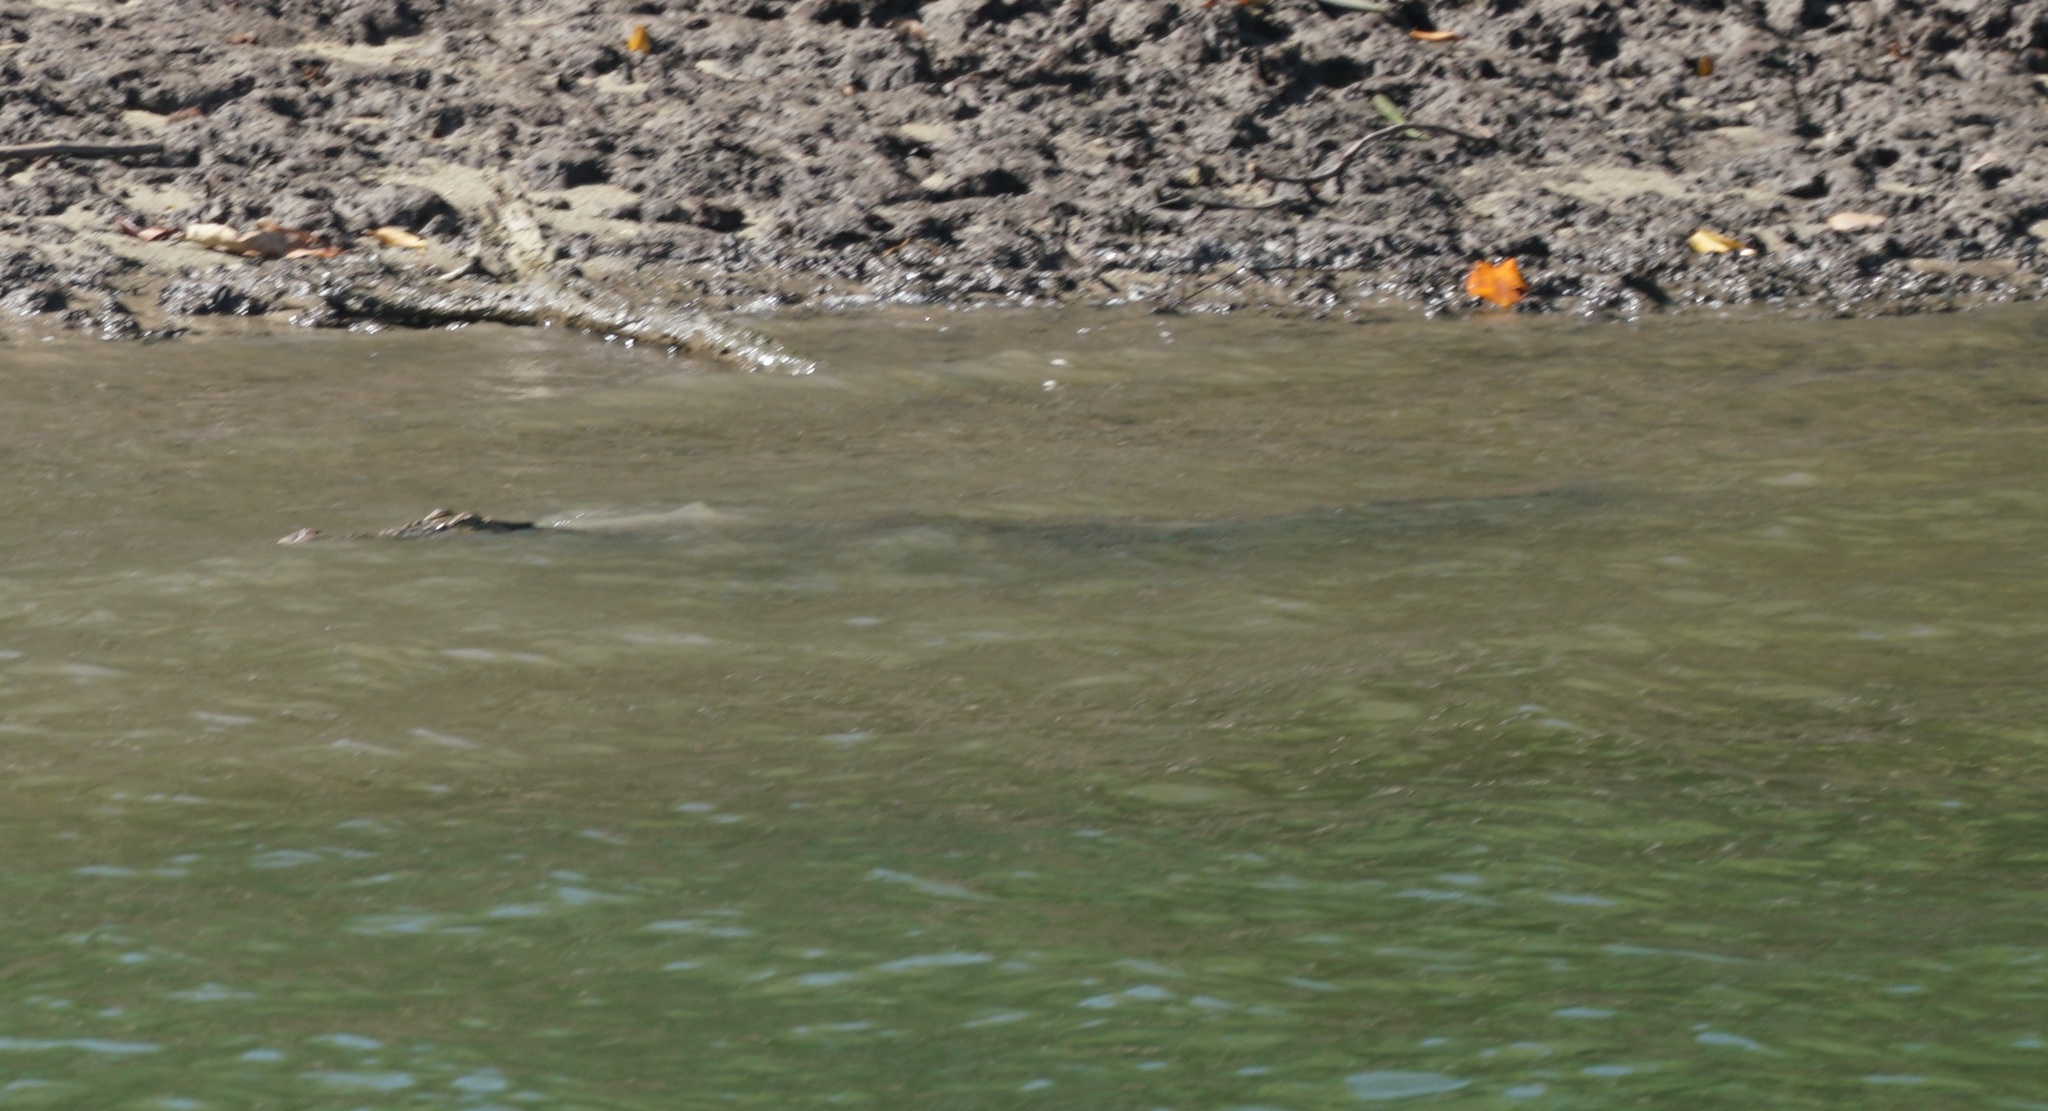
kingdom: Animalia
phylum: Chordata
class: Crocodylia
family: Crocodylidae
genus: Crocodylus
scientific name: Crocodylus porosus
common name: Saltwater crocodile
